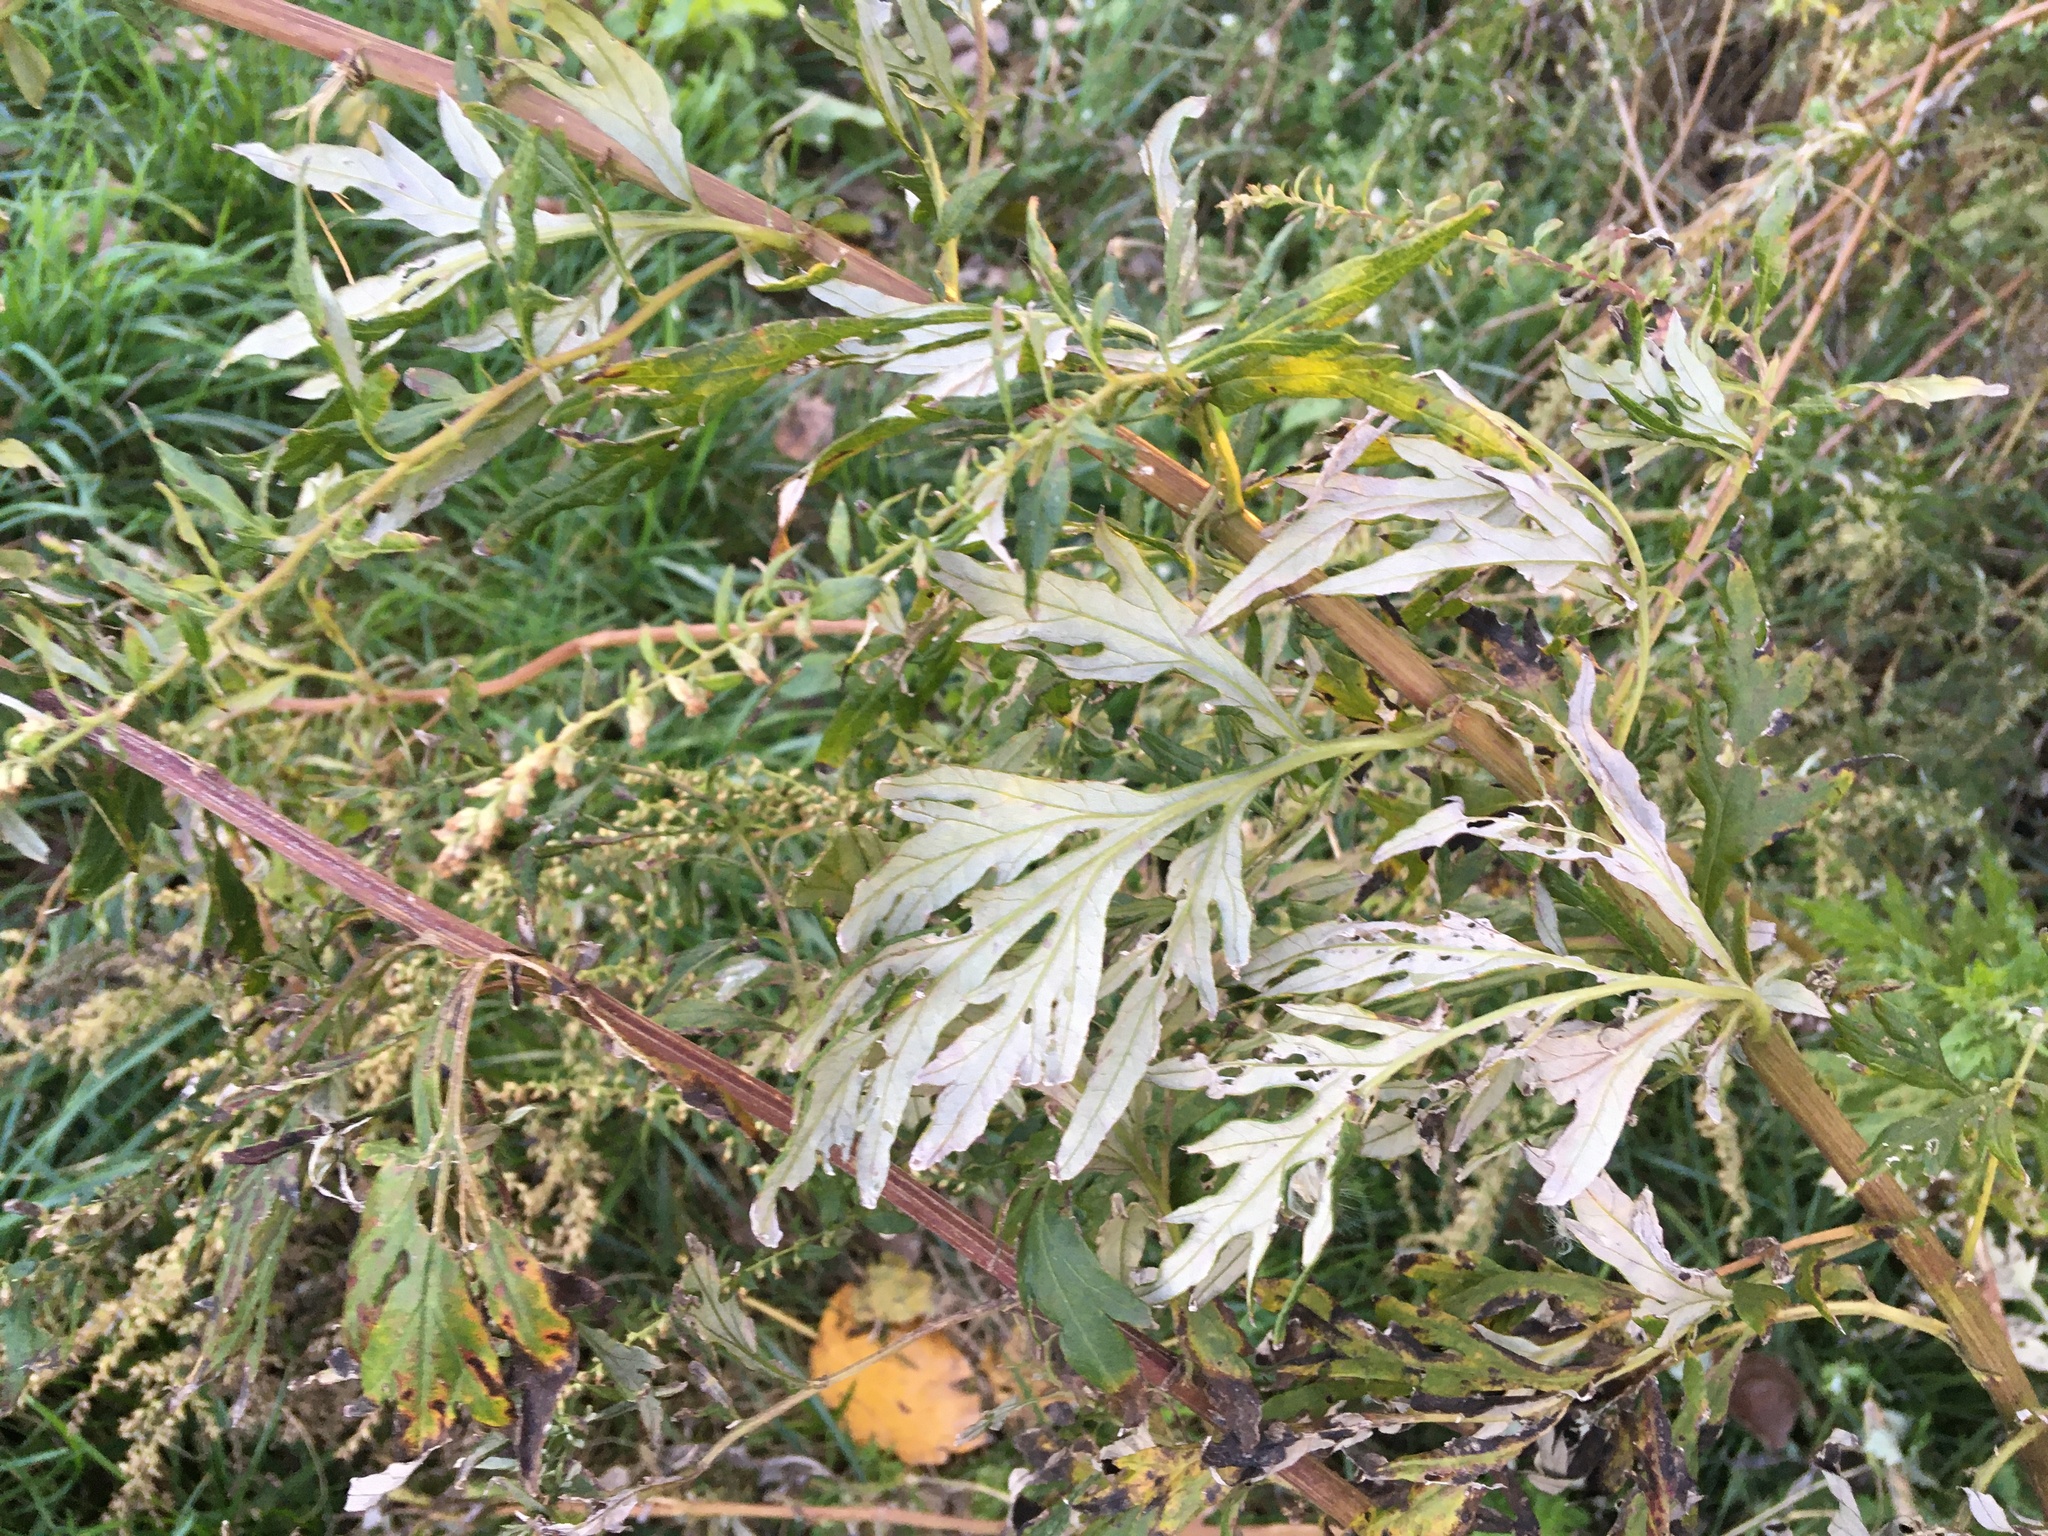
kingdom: Plantae
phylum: Tracheophyta
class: Magnoliopsida
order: Asterales
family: Asteraceae
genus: Artemisia
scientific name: Artemisia vulgaris
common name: Mugwort
